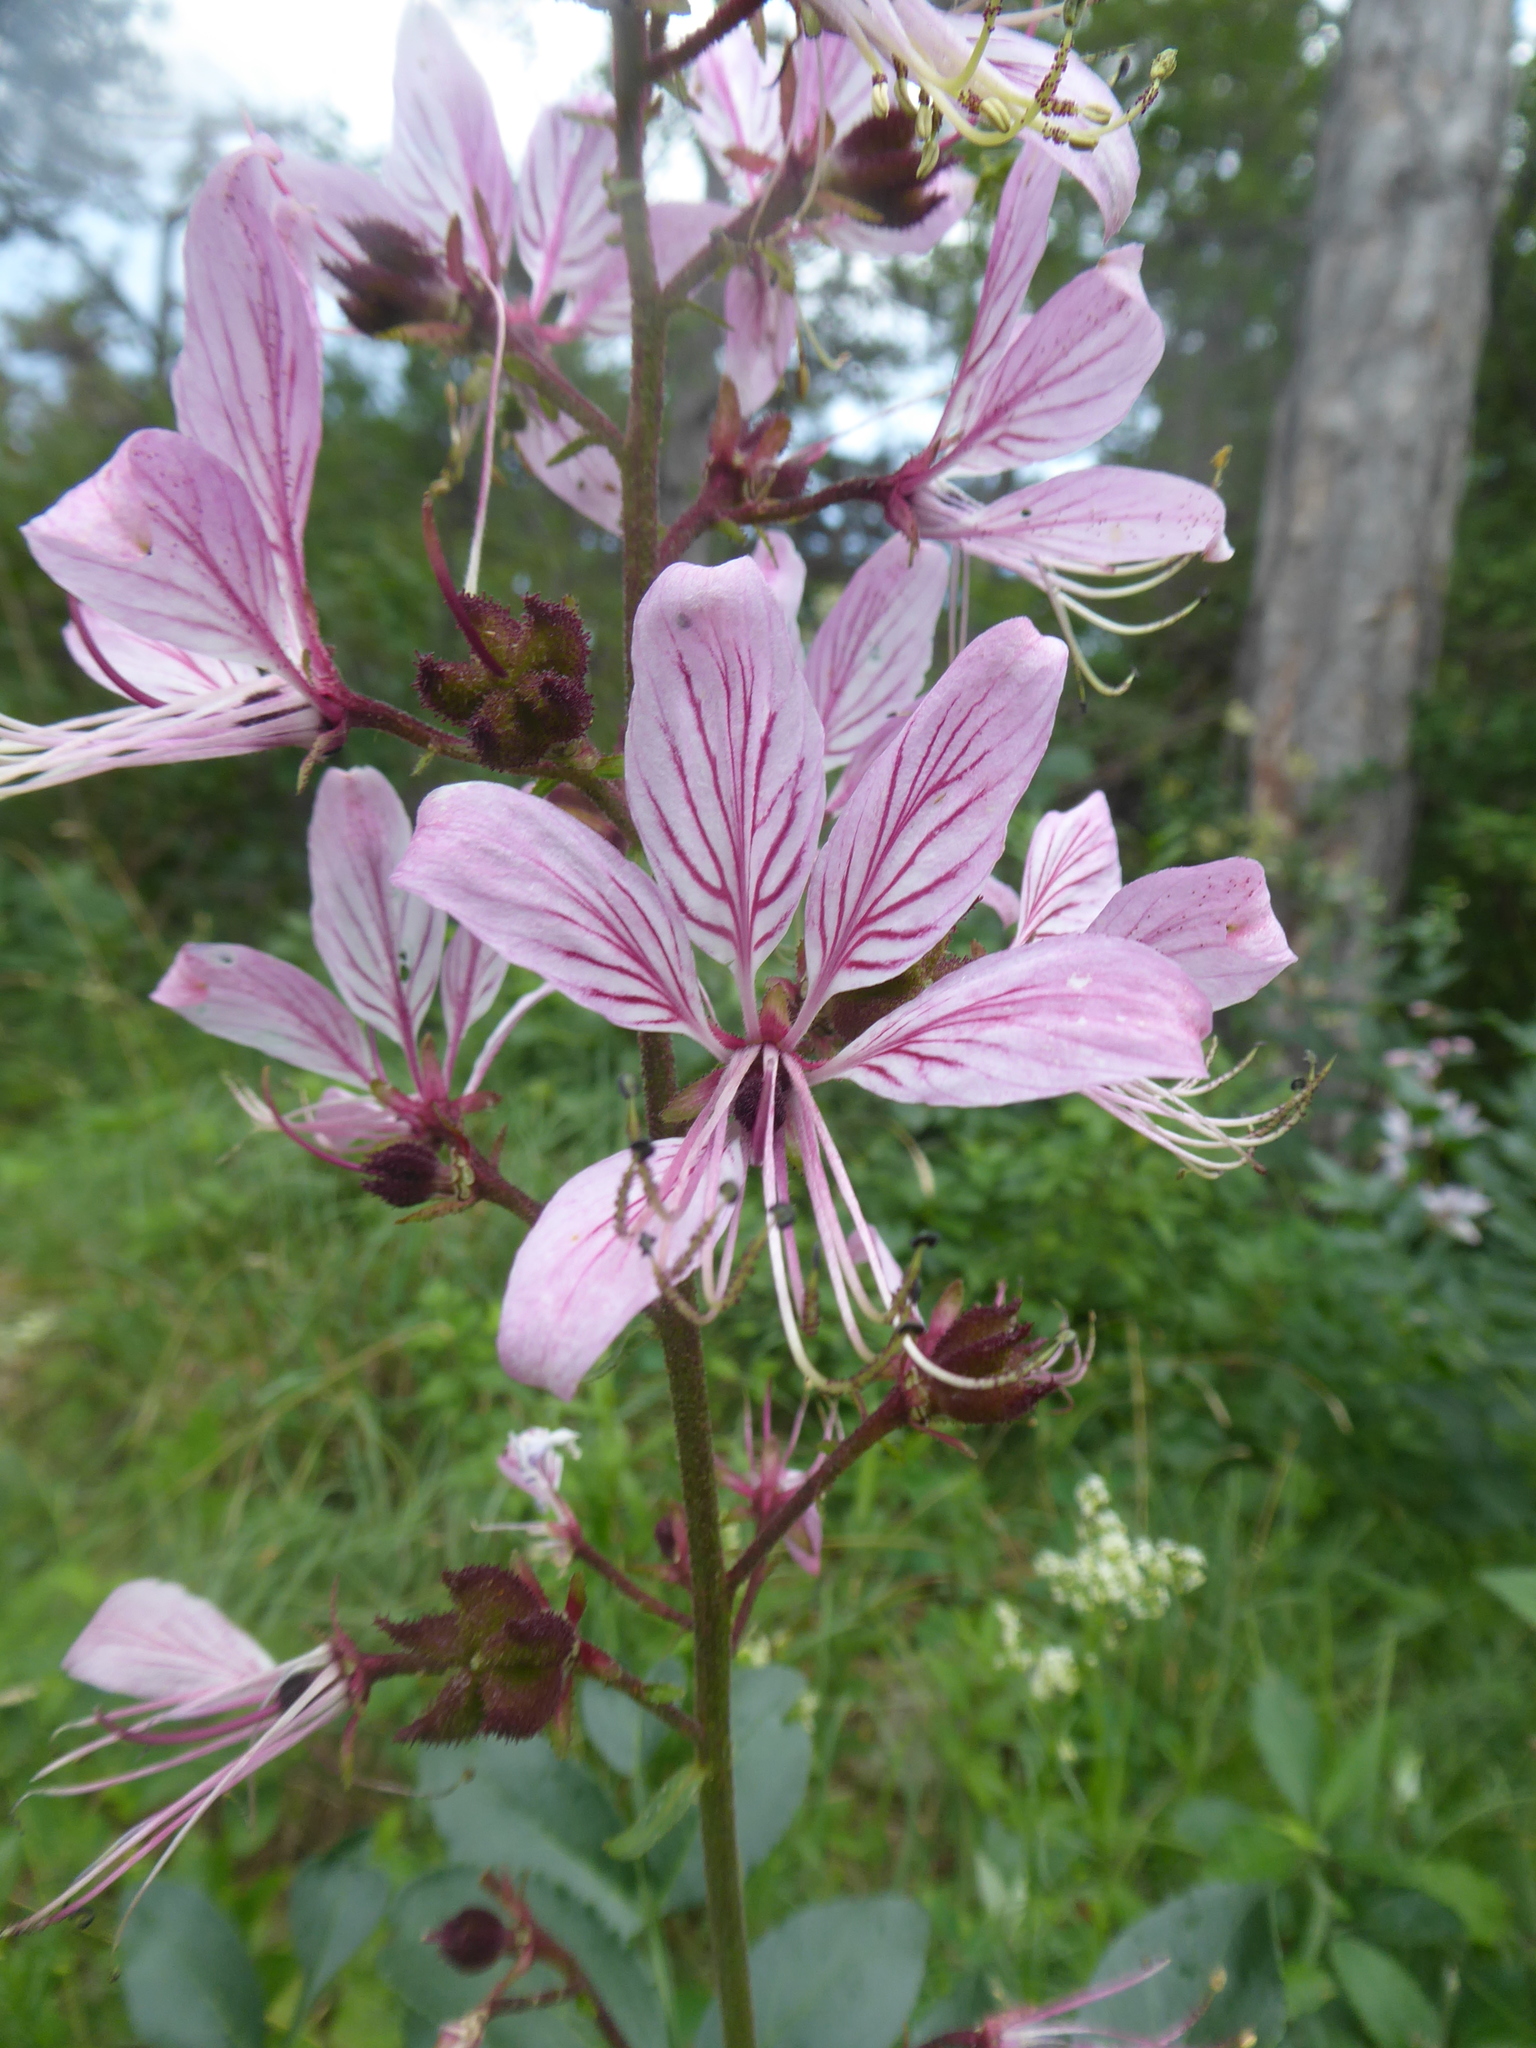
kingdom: Plantae
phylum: Tracheophyta
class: Magnoliopsida
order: Sapindales
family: Rutaceae
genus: Dictamnus
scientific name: Dictamnus albus
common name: Gasplant
